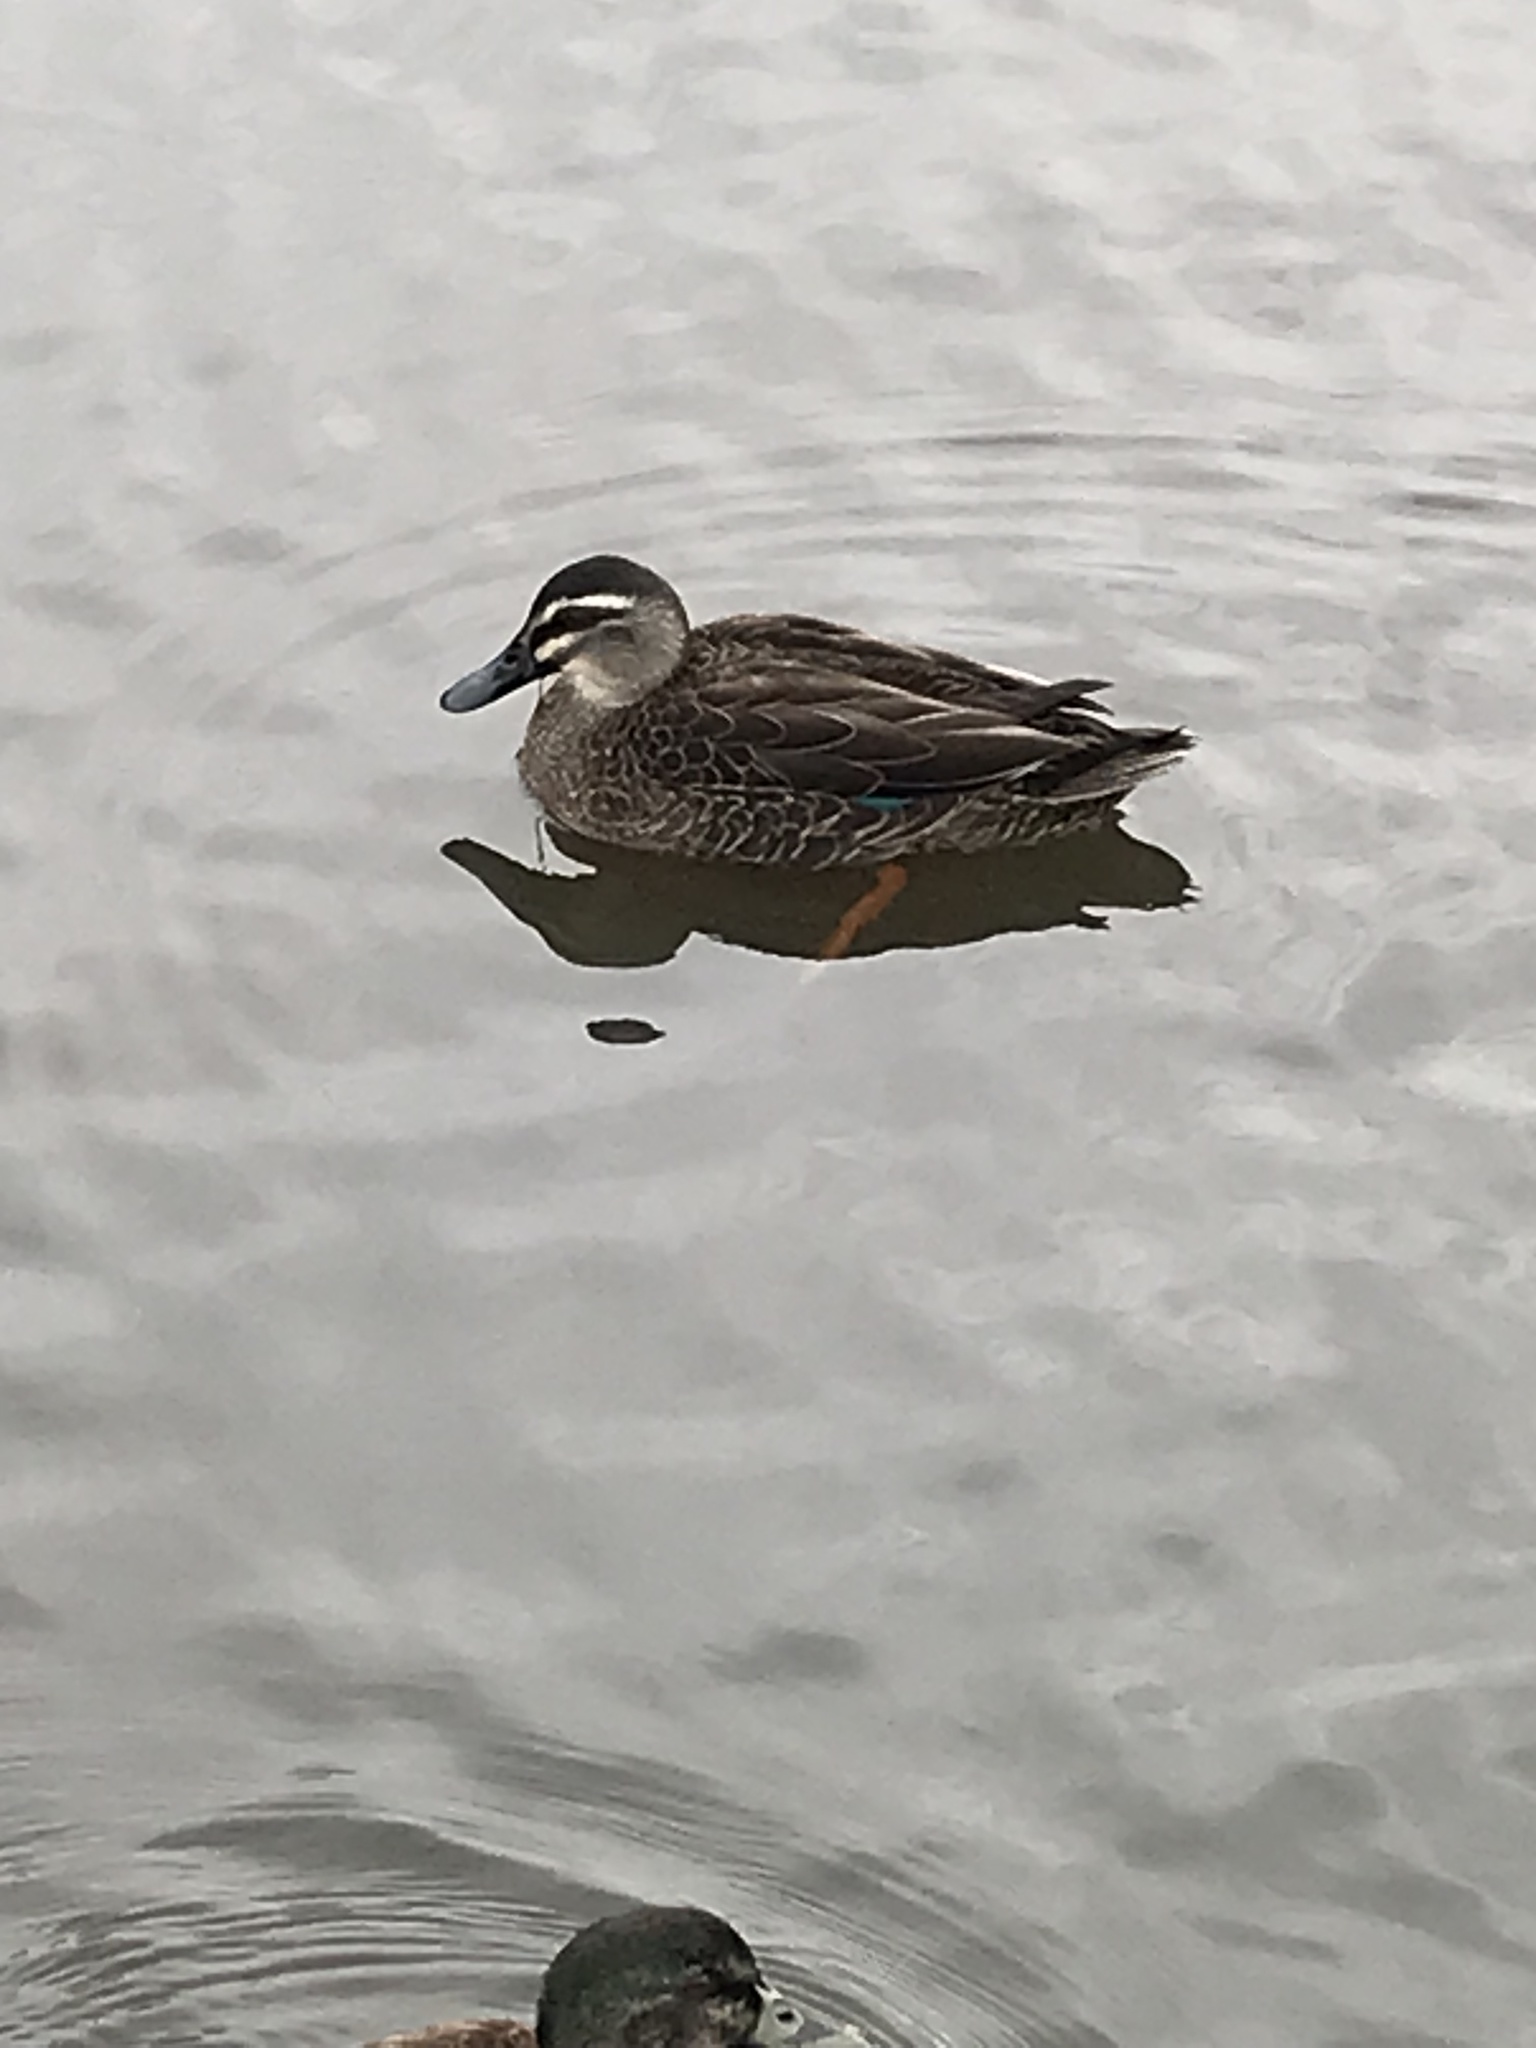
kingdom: Animalia
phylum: Chordata
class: Aves
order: Anseriformes
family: Anatidae
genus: Anas
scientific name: Anas
